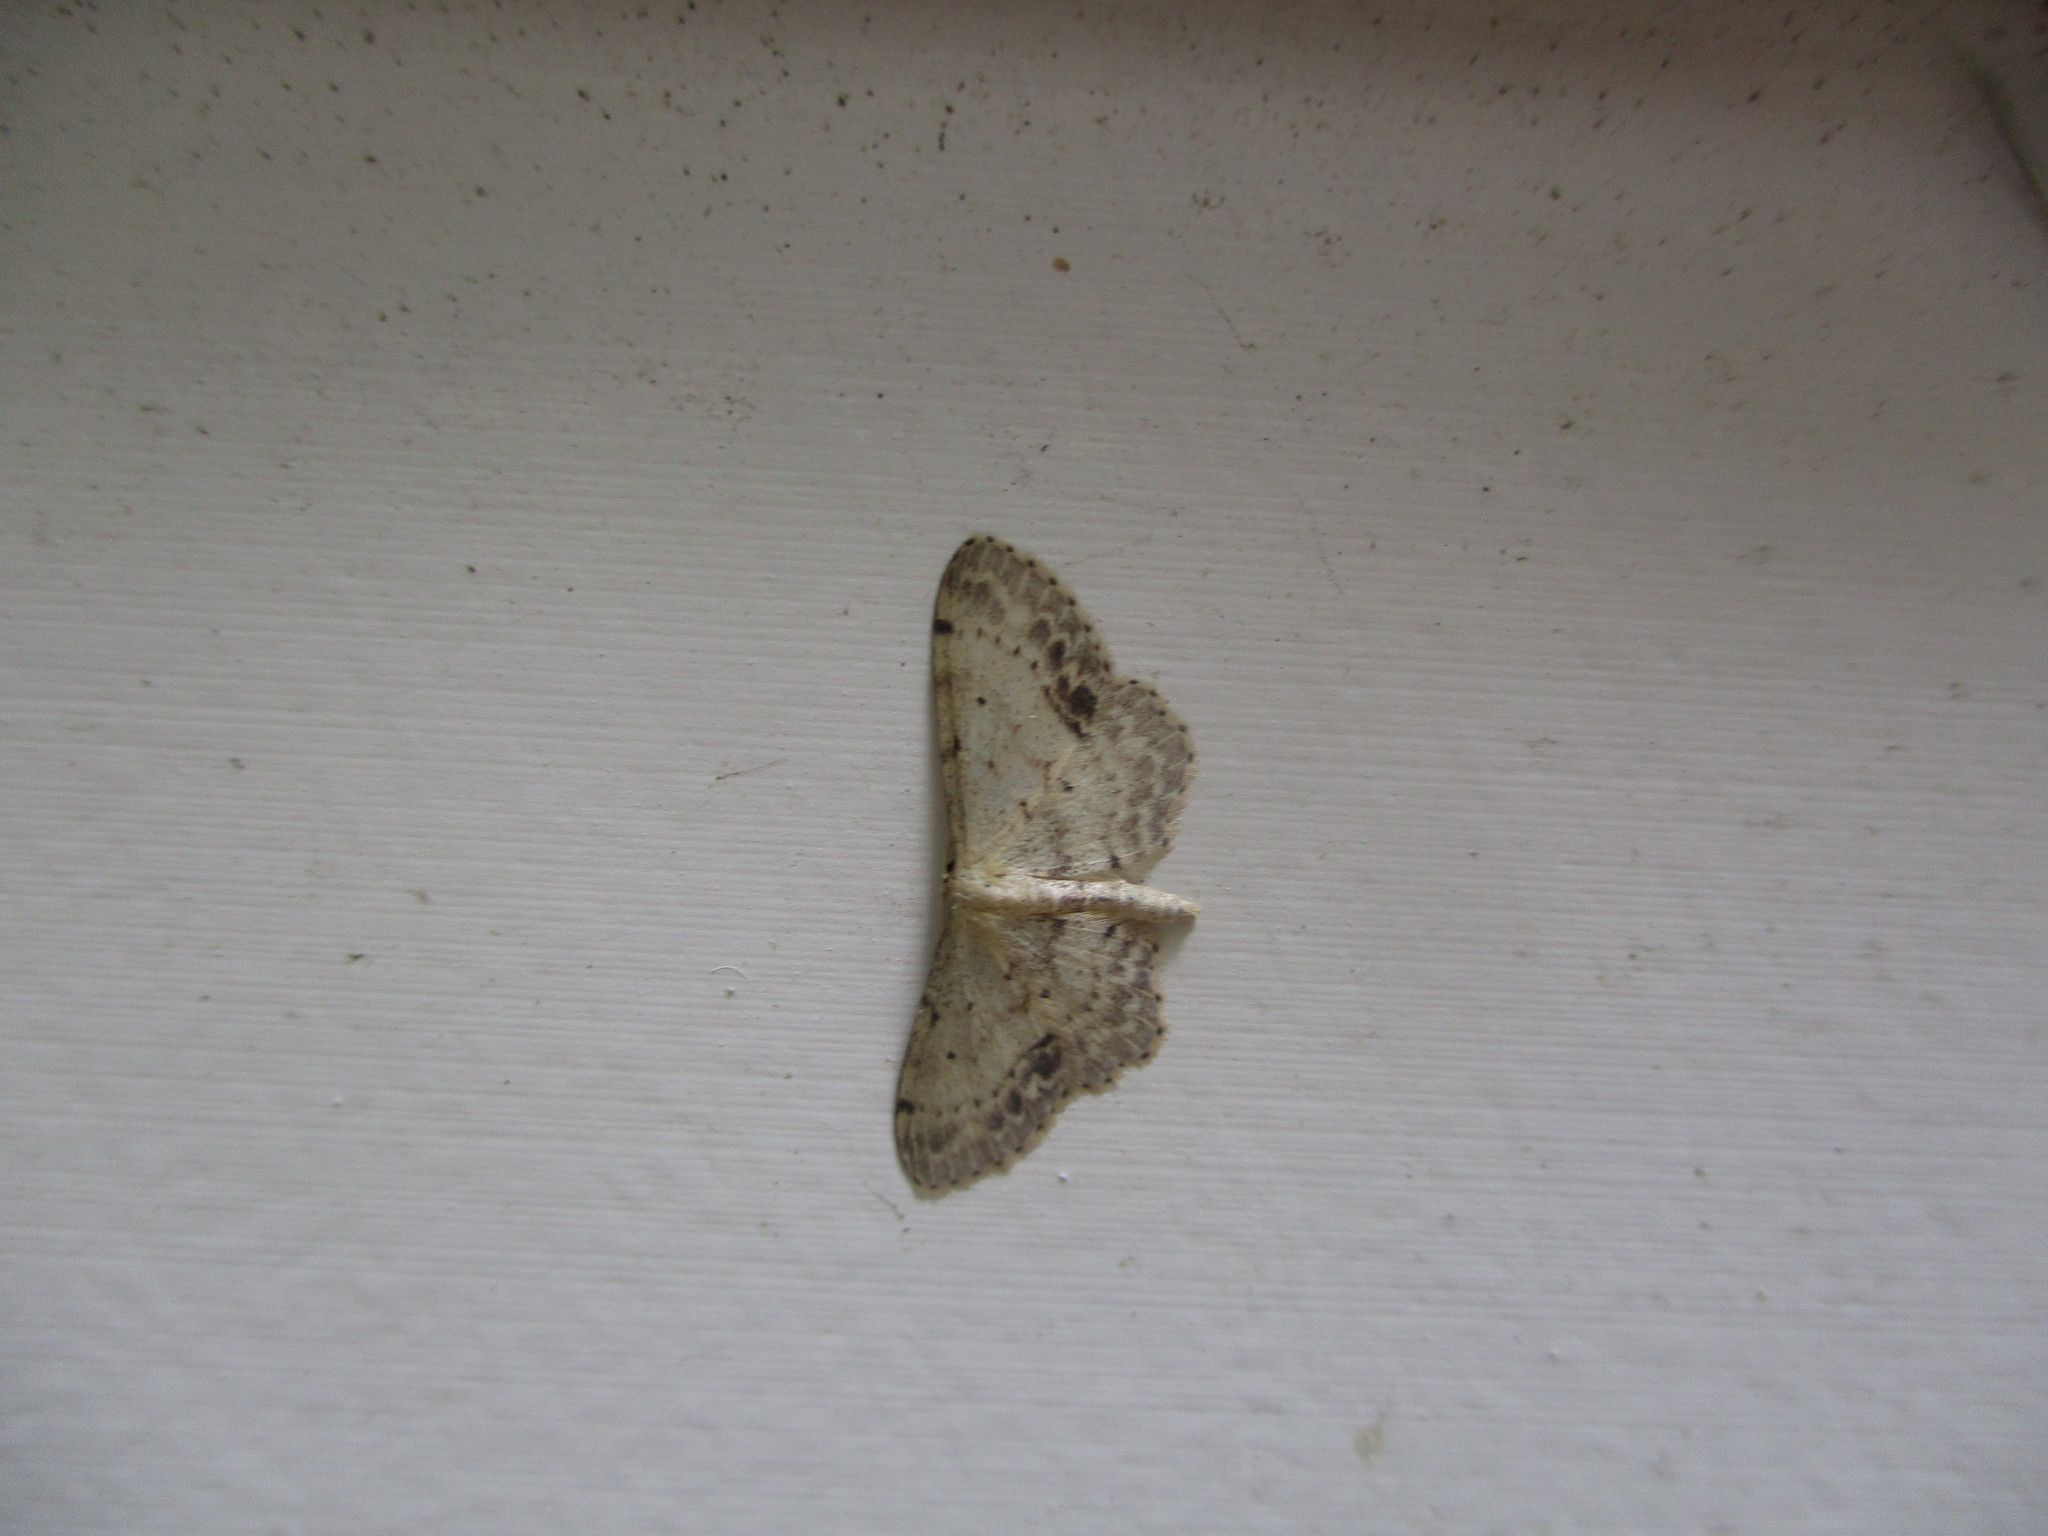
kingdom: Animalia
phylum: Arthropoda
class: Insecta
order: Lepidoptera
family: Geometridae
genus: Idaea
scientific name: Idaea dimidiata
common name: Single-dotted wave
